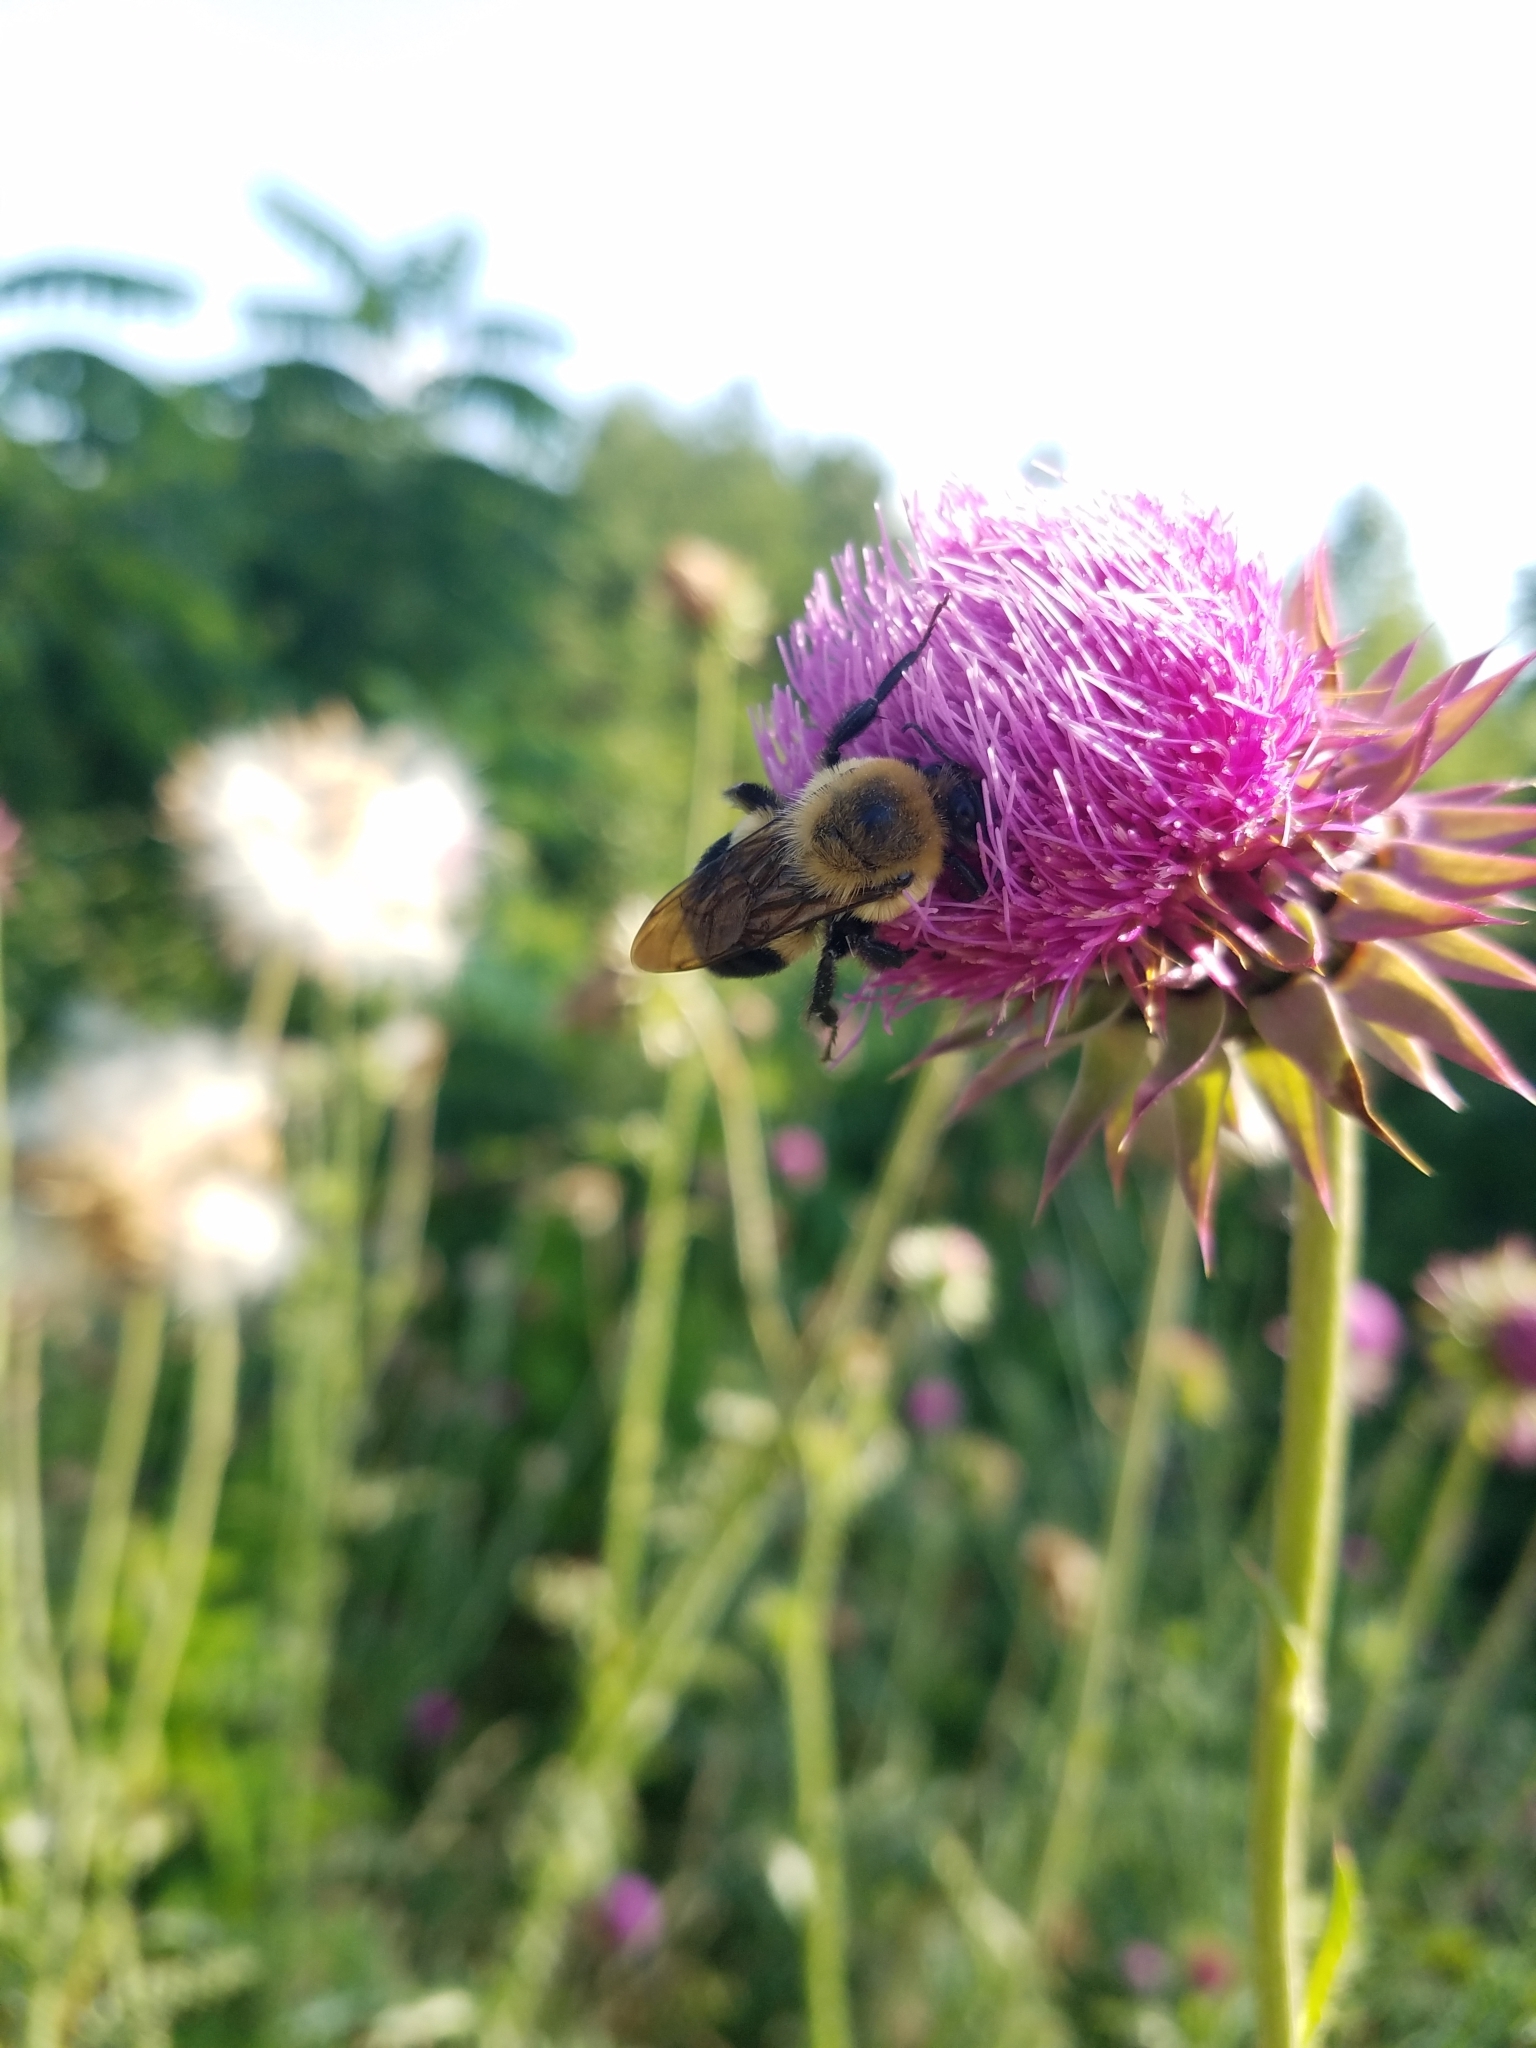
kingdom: Plantae
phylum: Tracheophyta
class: Magnoliopsida
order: Asterales
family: Asteraceae
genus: Cirsium
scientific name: Cirsium vulgare
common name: Bull thistle
